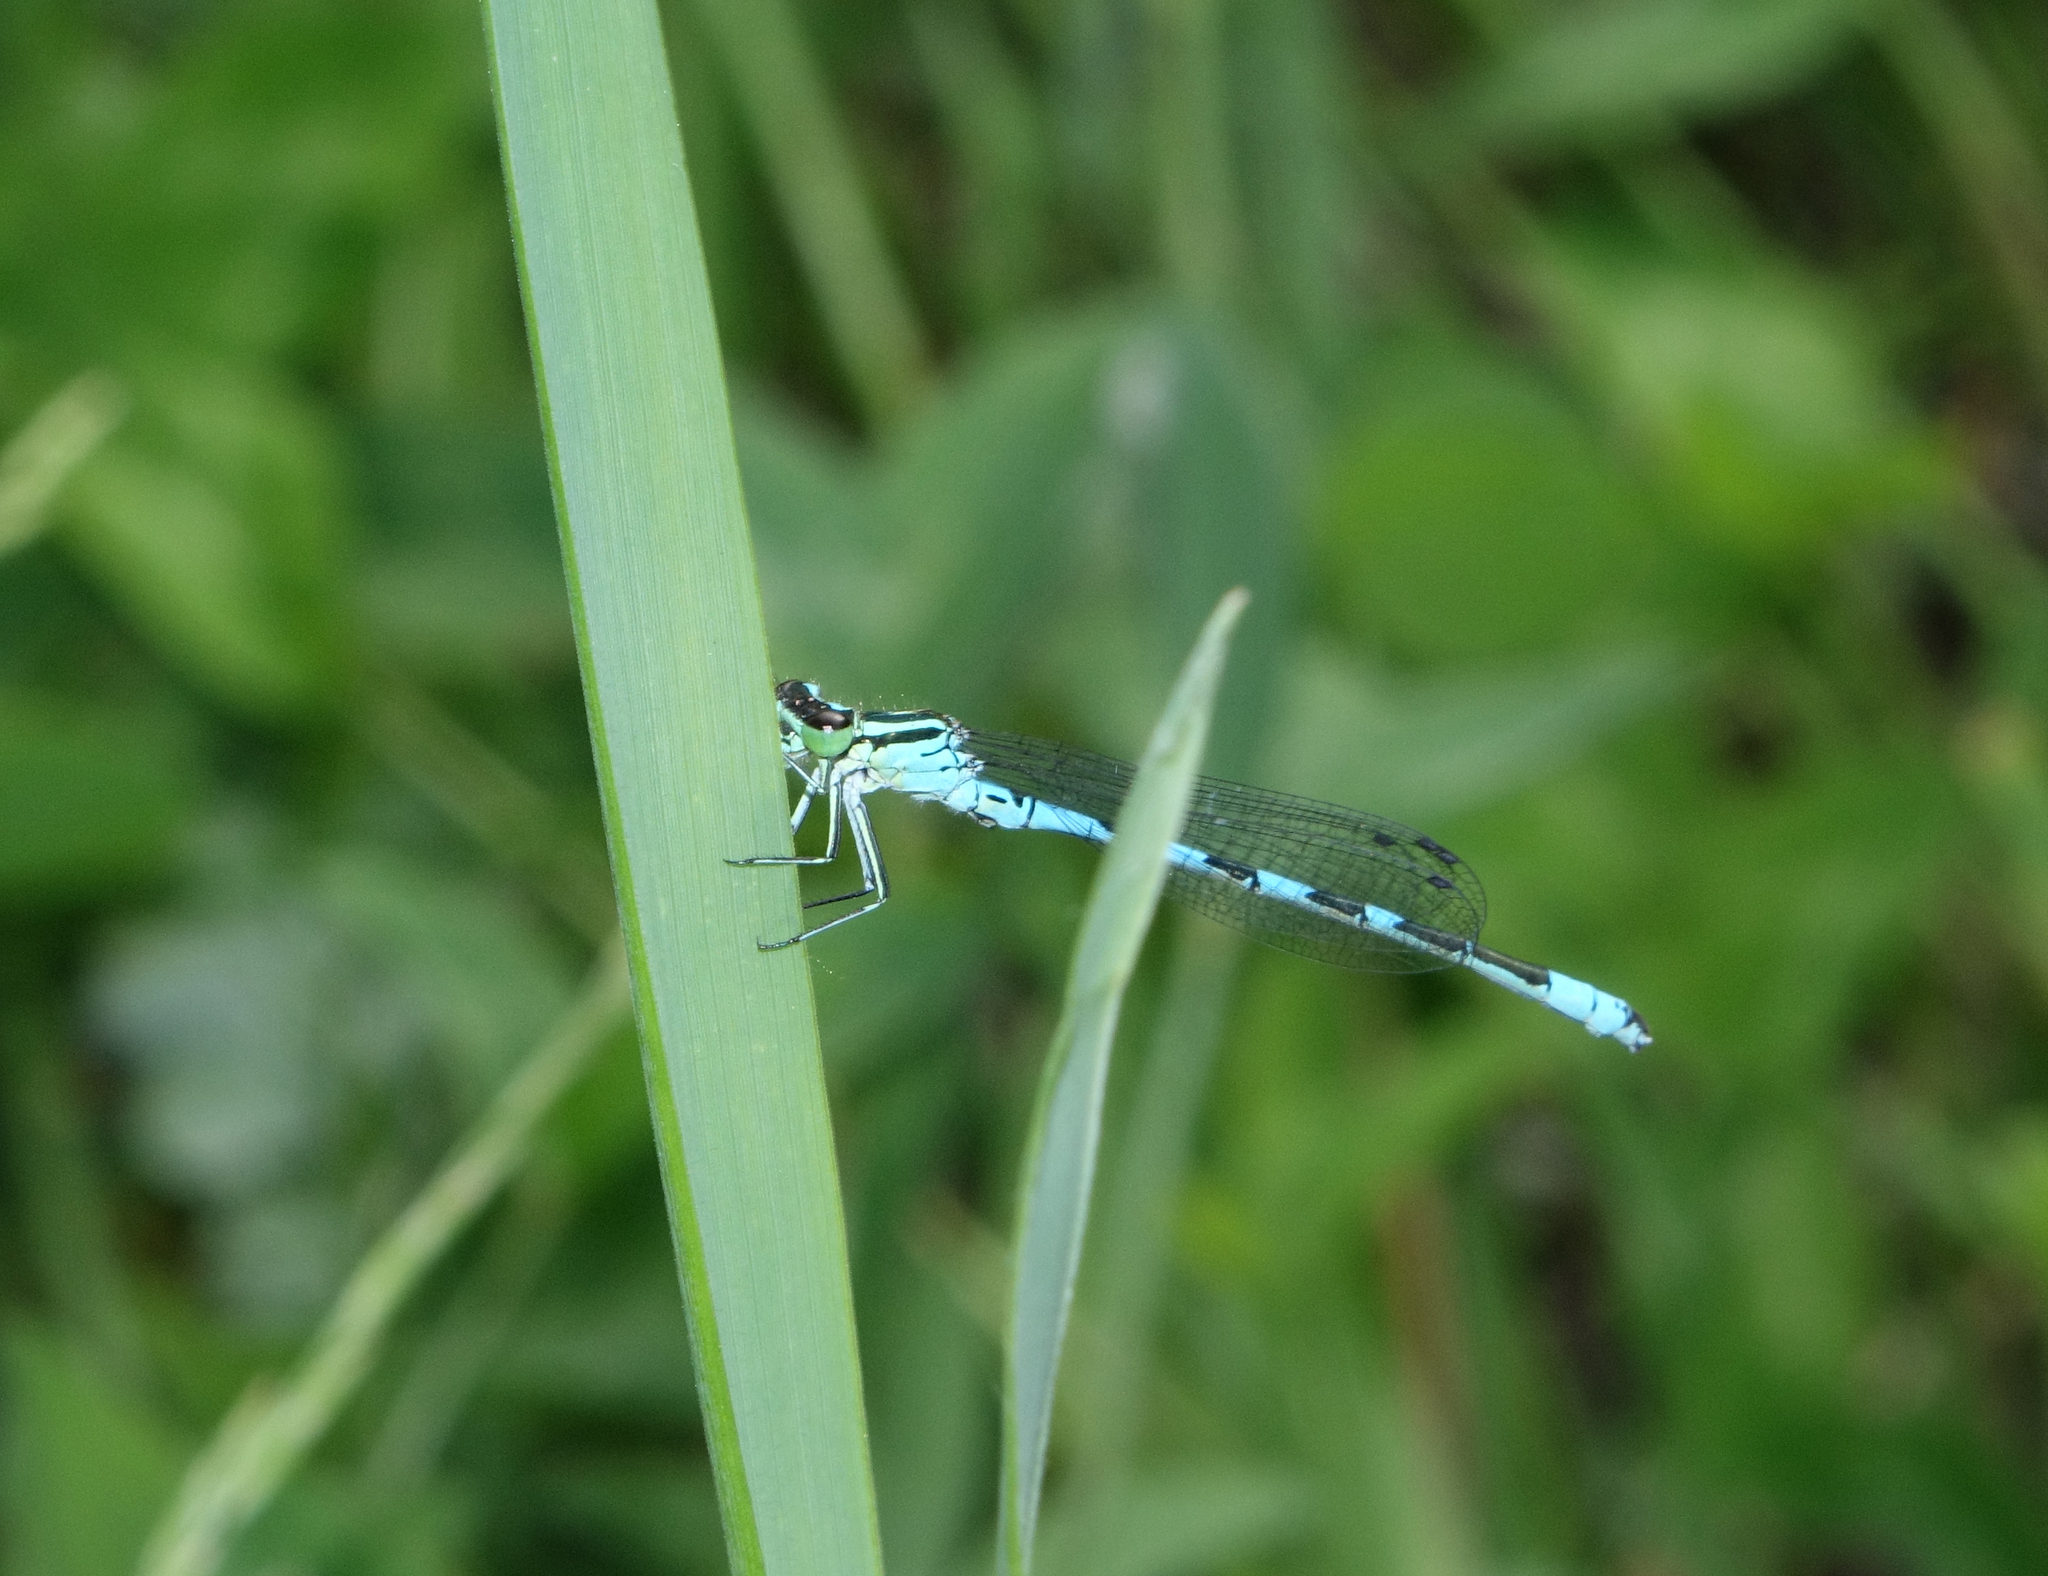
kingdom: Animalia
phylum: Arthropoda
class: Insecta
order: Odonata
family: Coenagrionidae
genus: Coenagrion
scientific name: Coenagrion hastulatum
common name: Spearhead bluet
